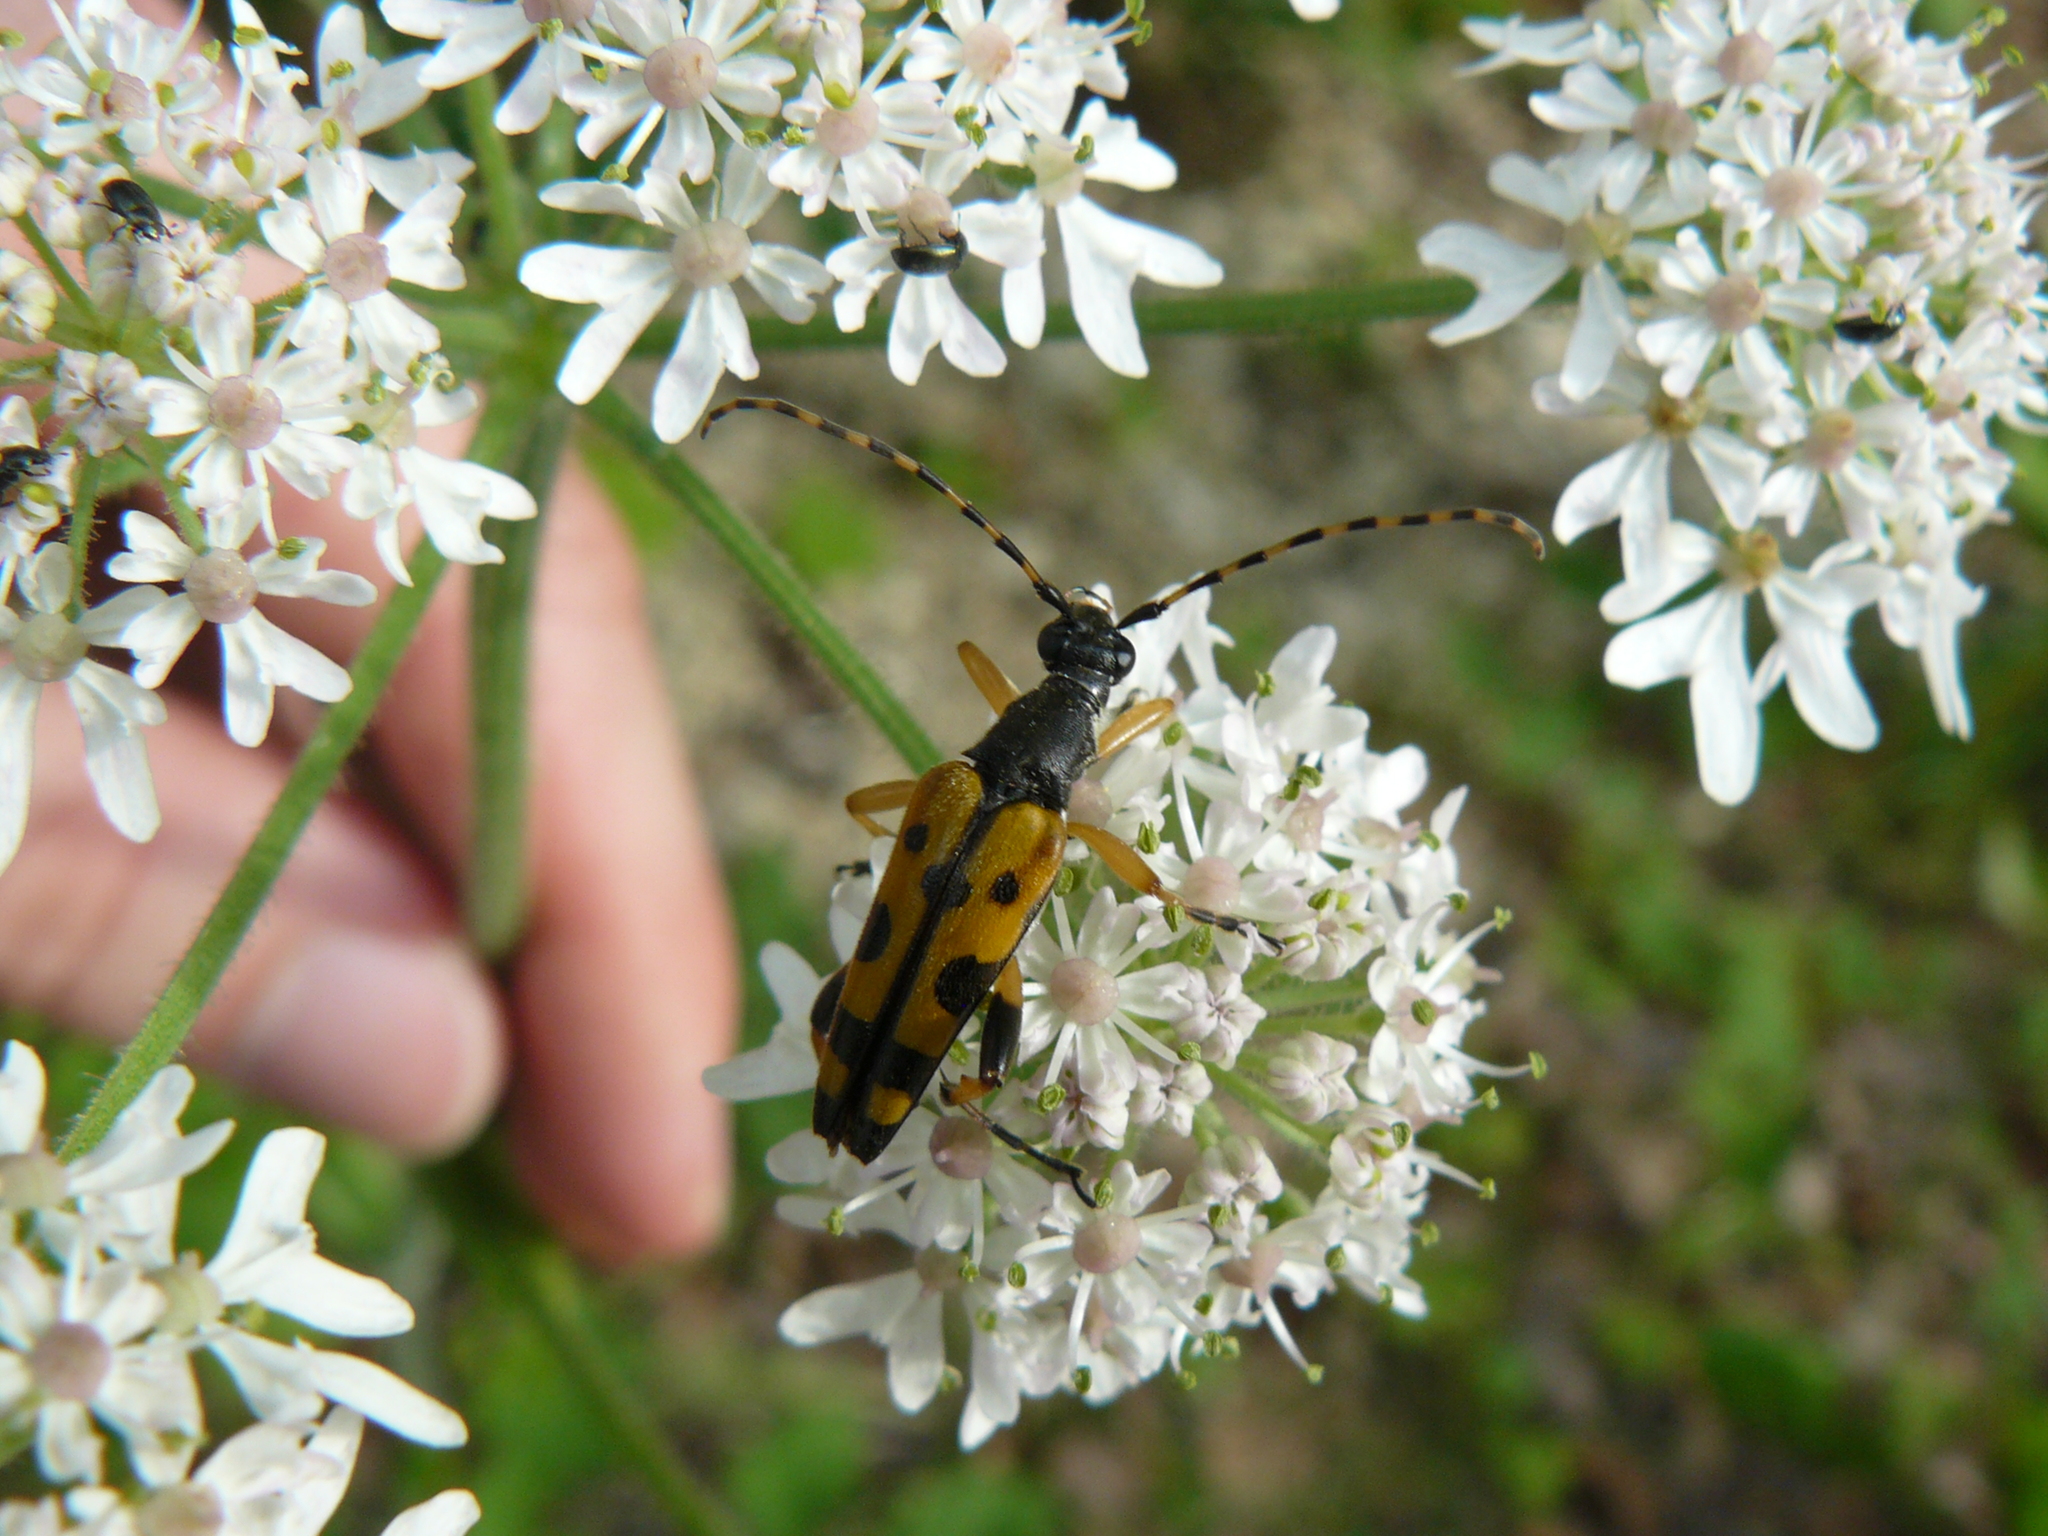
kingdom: Animalia
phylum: Arthropoda
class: Insecta
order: Coleoptera
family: Cerambycidae
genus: Rutpela
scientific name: Rutpela maculata
